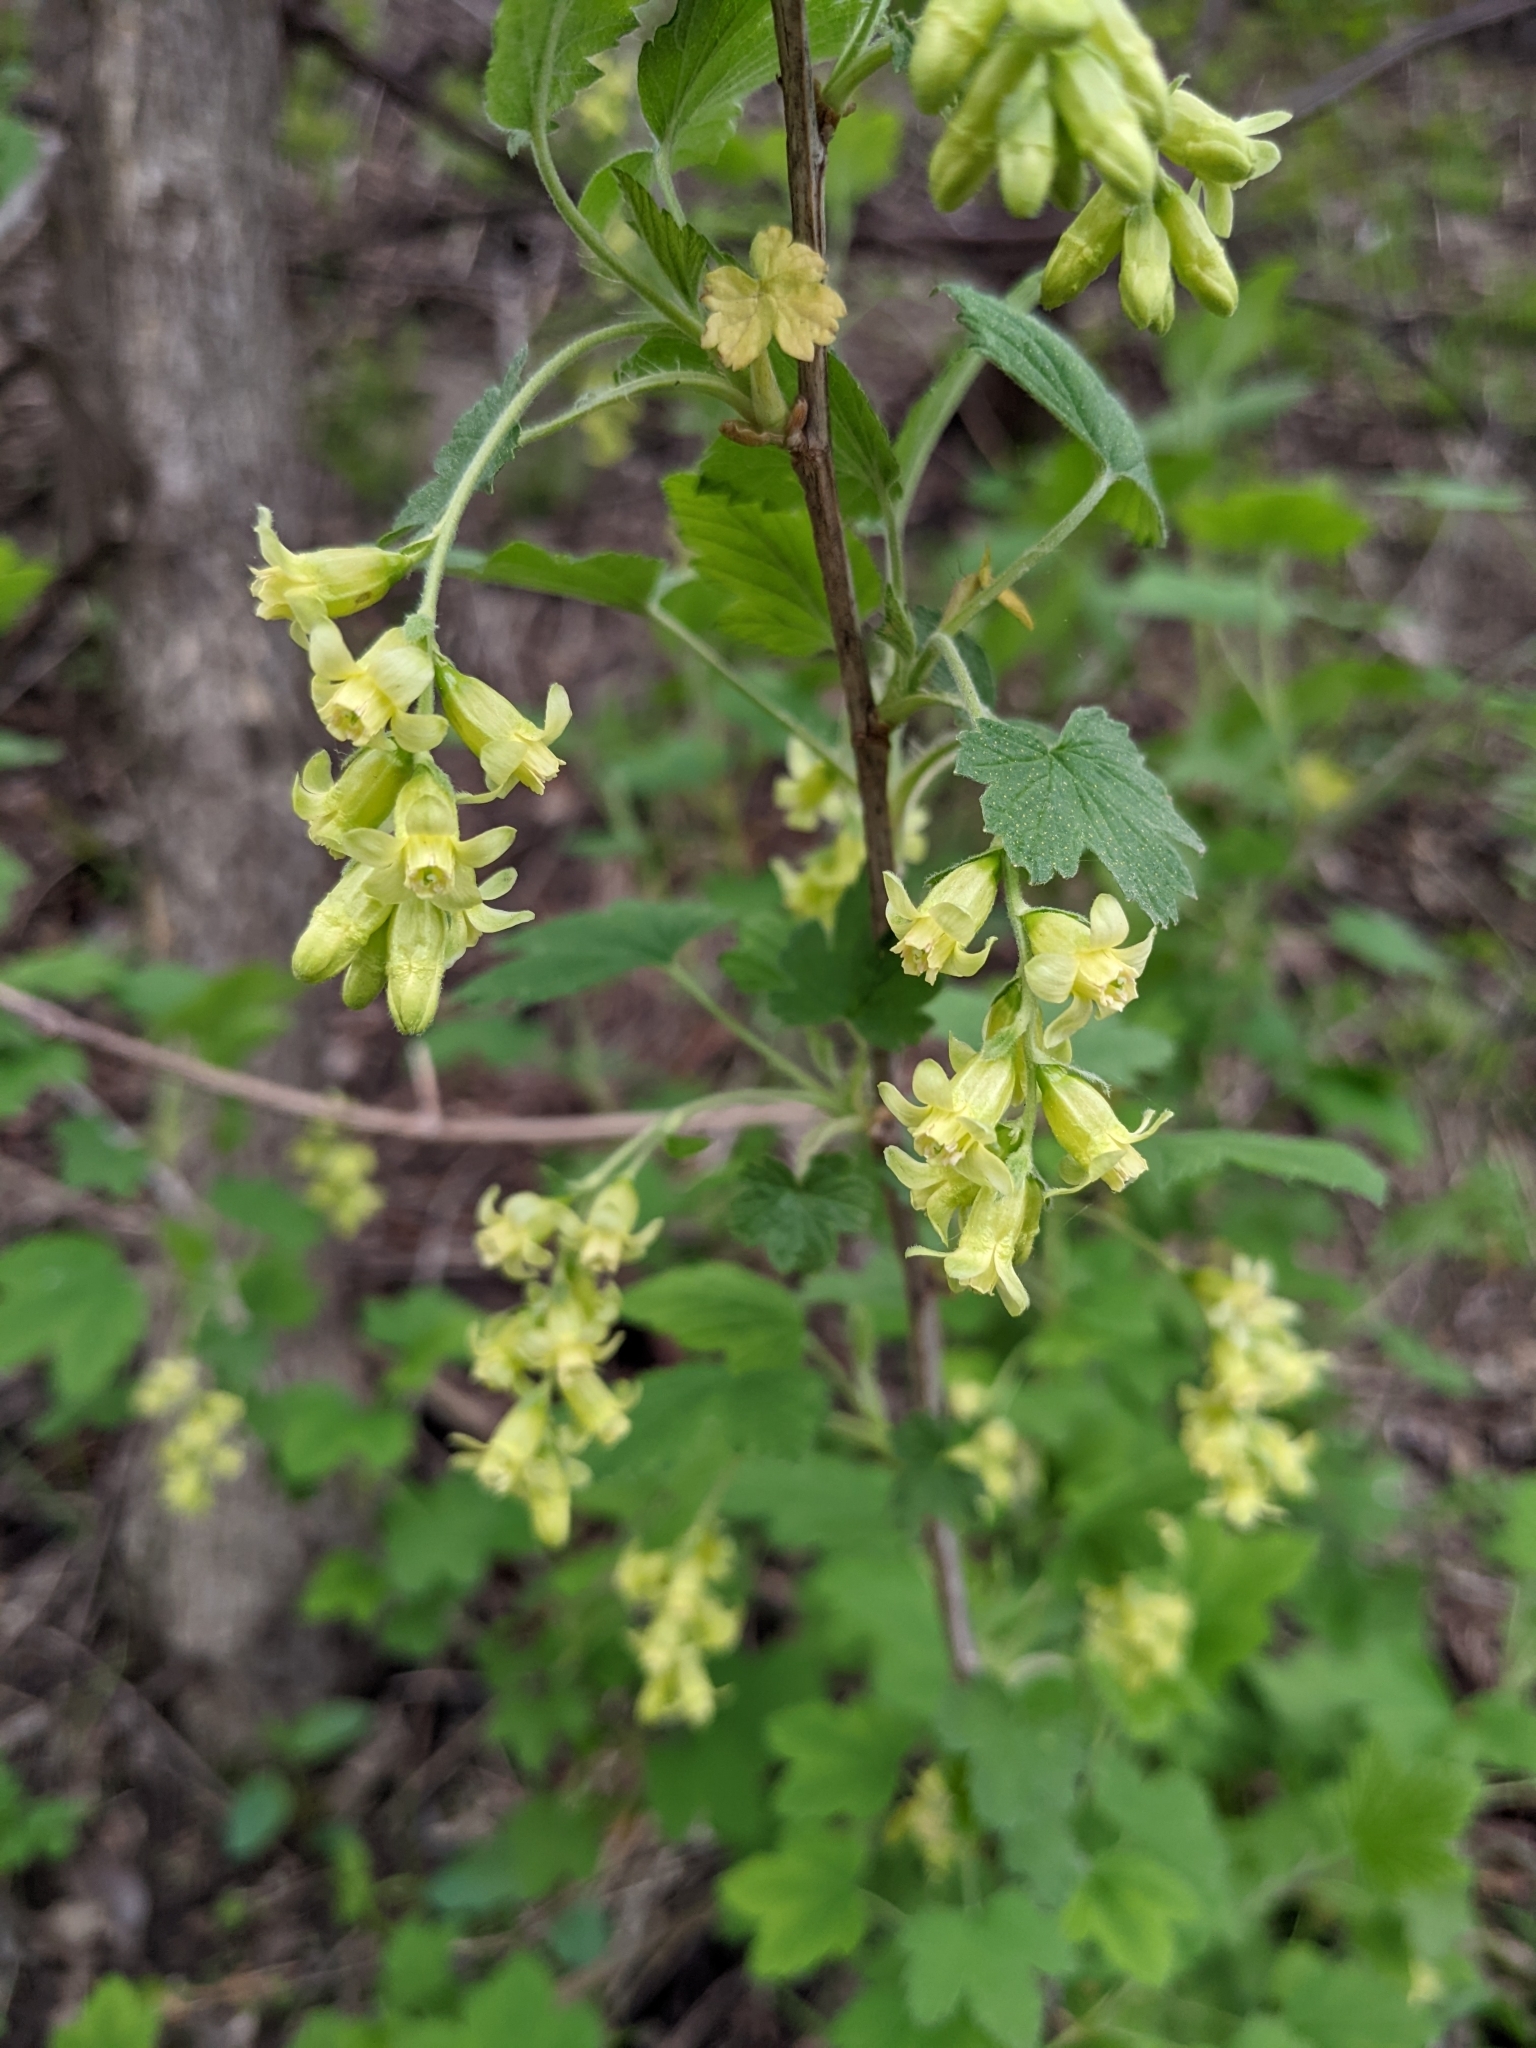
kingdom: Plantae
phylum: Tracheophyta
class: Magnoliopsida
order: Saxifragales
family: Grossulariaceae
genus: Ribes
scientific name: Ribes americanum
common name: American black currant
